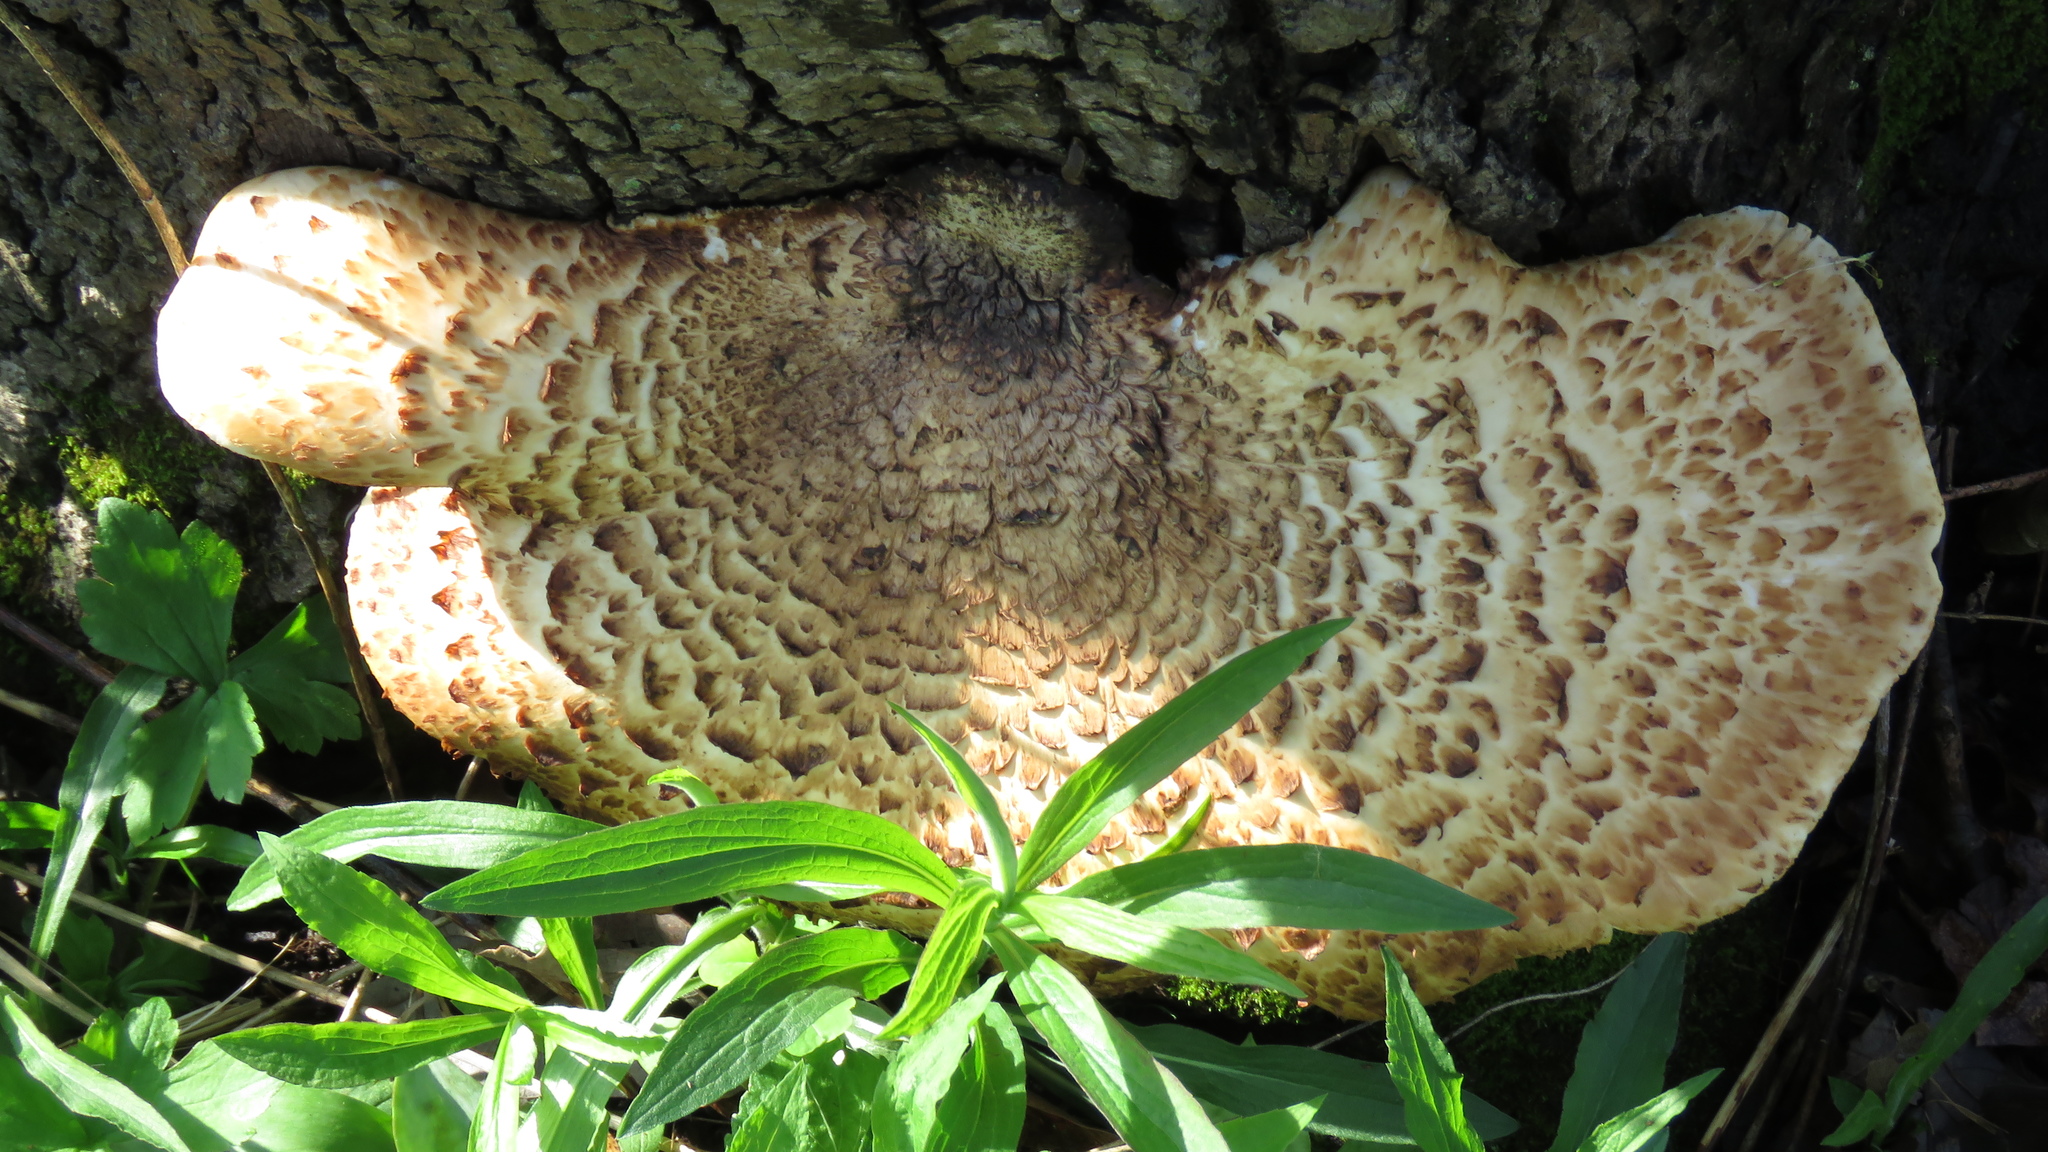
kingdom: Fungi
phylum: Basidiomycota
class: Agaricomycetes
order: Polyporales
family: Polyporaceae
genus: Cerioporus
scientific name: Cerioporus squamosus
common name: Dryad's saddle
